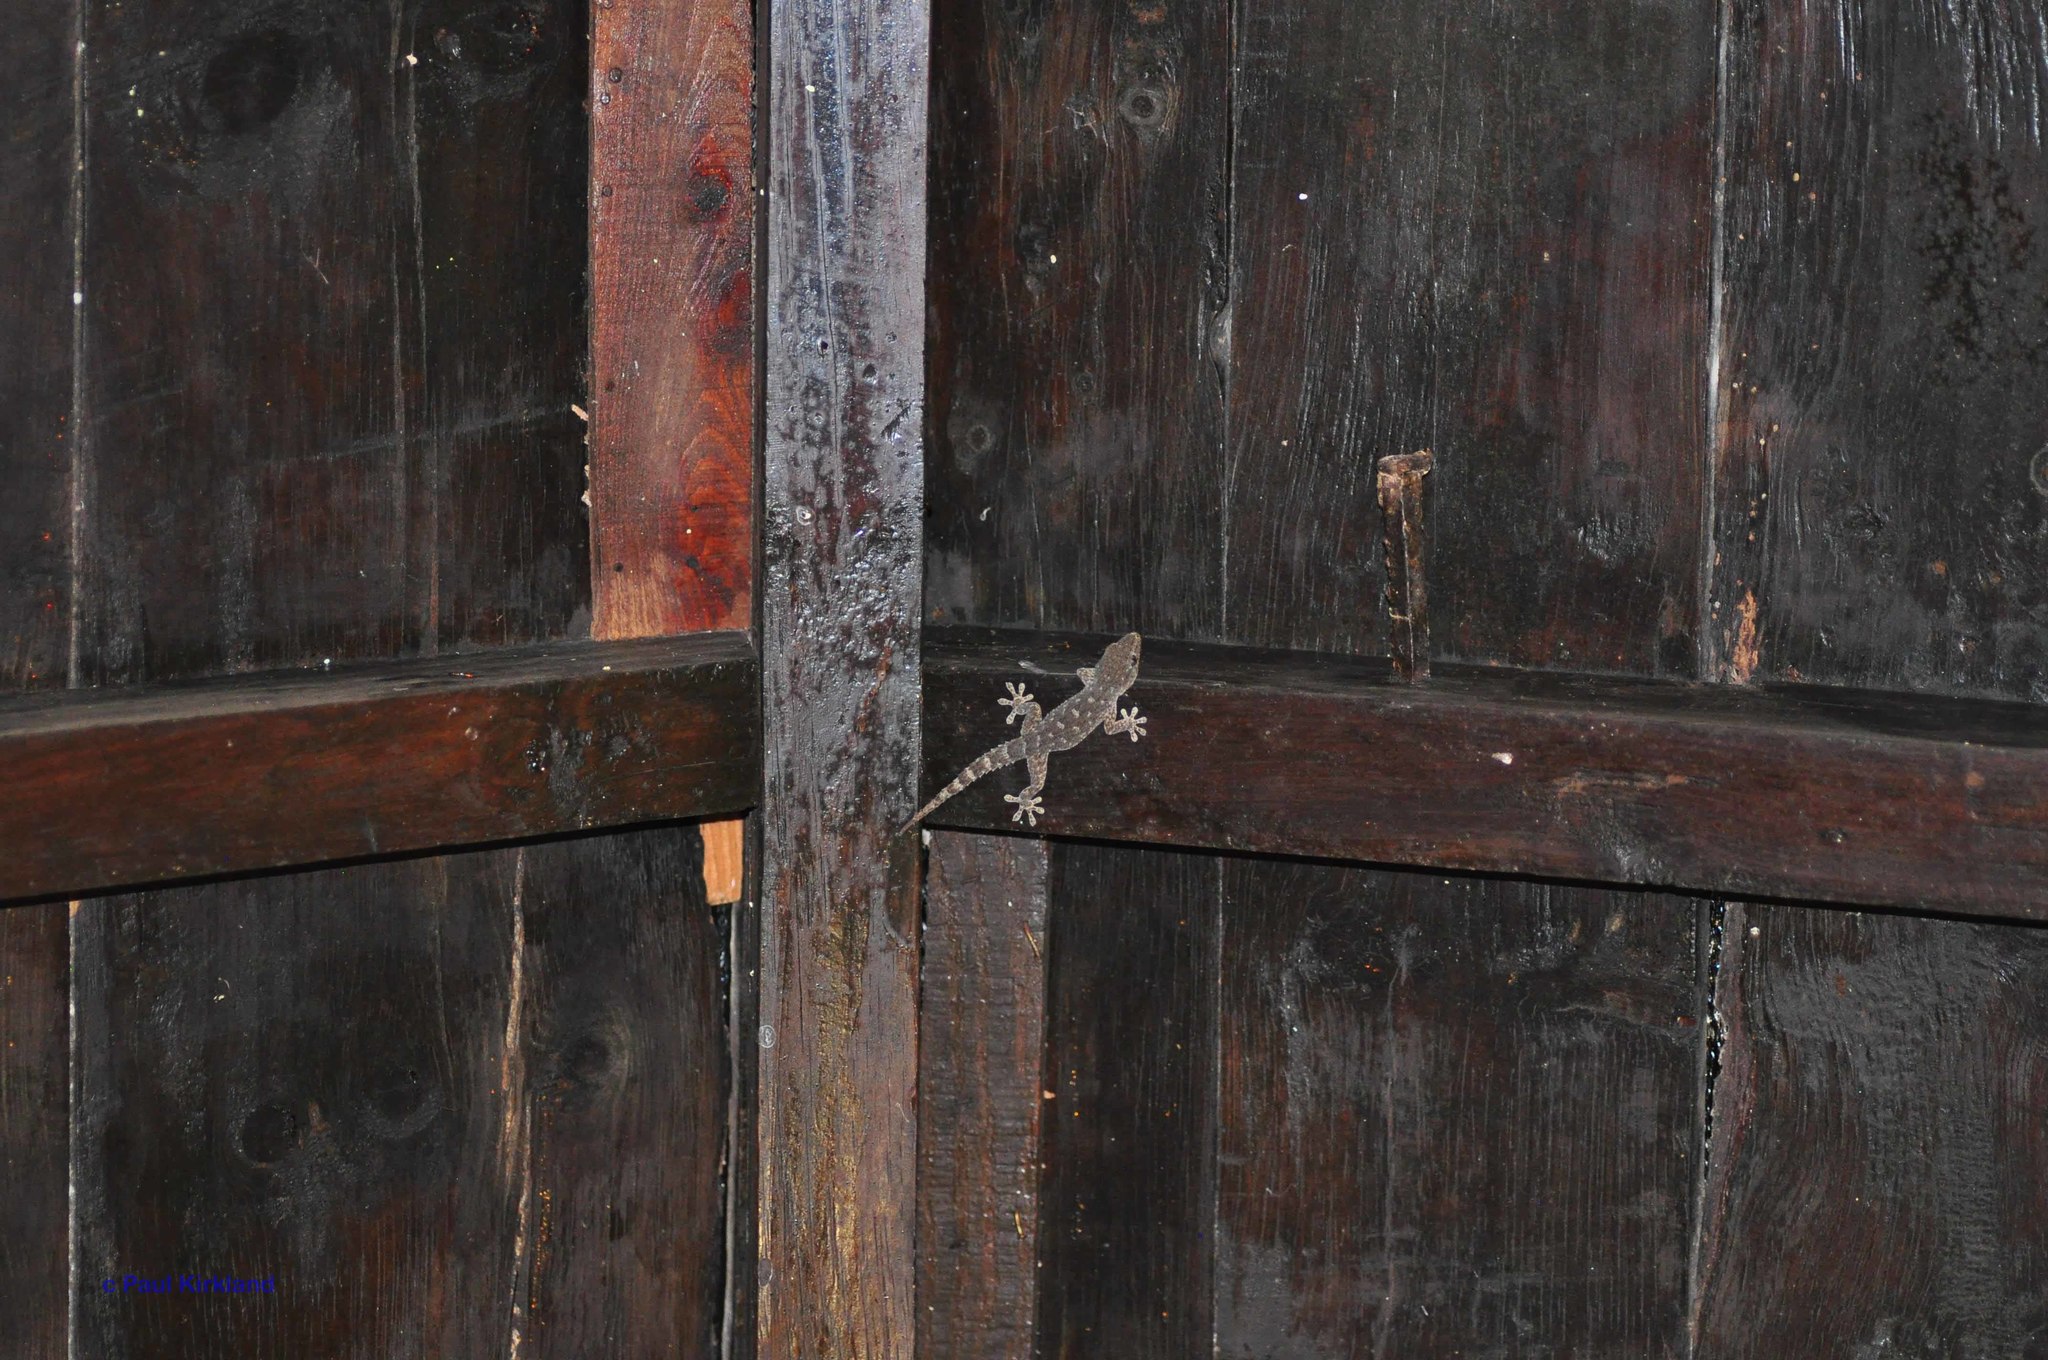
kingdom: Animalia
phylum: Chordata
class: Squamata
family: Phyllodactylidae
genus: Tarentola
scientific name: Tarentola delalandii
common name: Tenerife wall gecko
